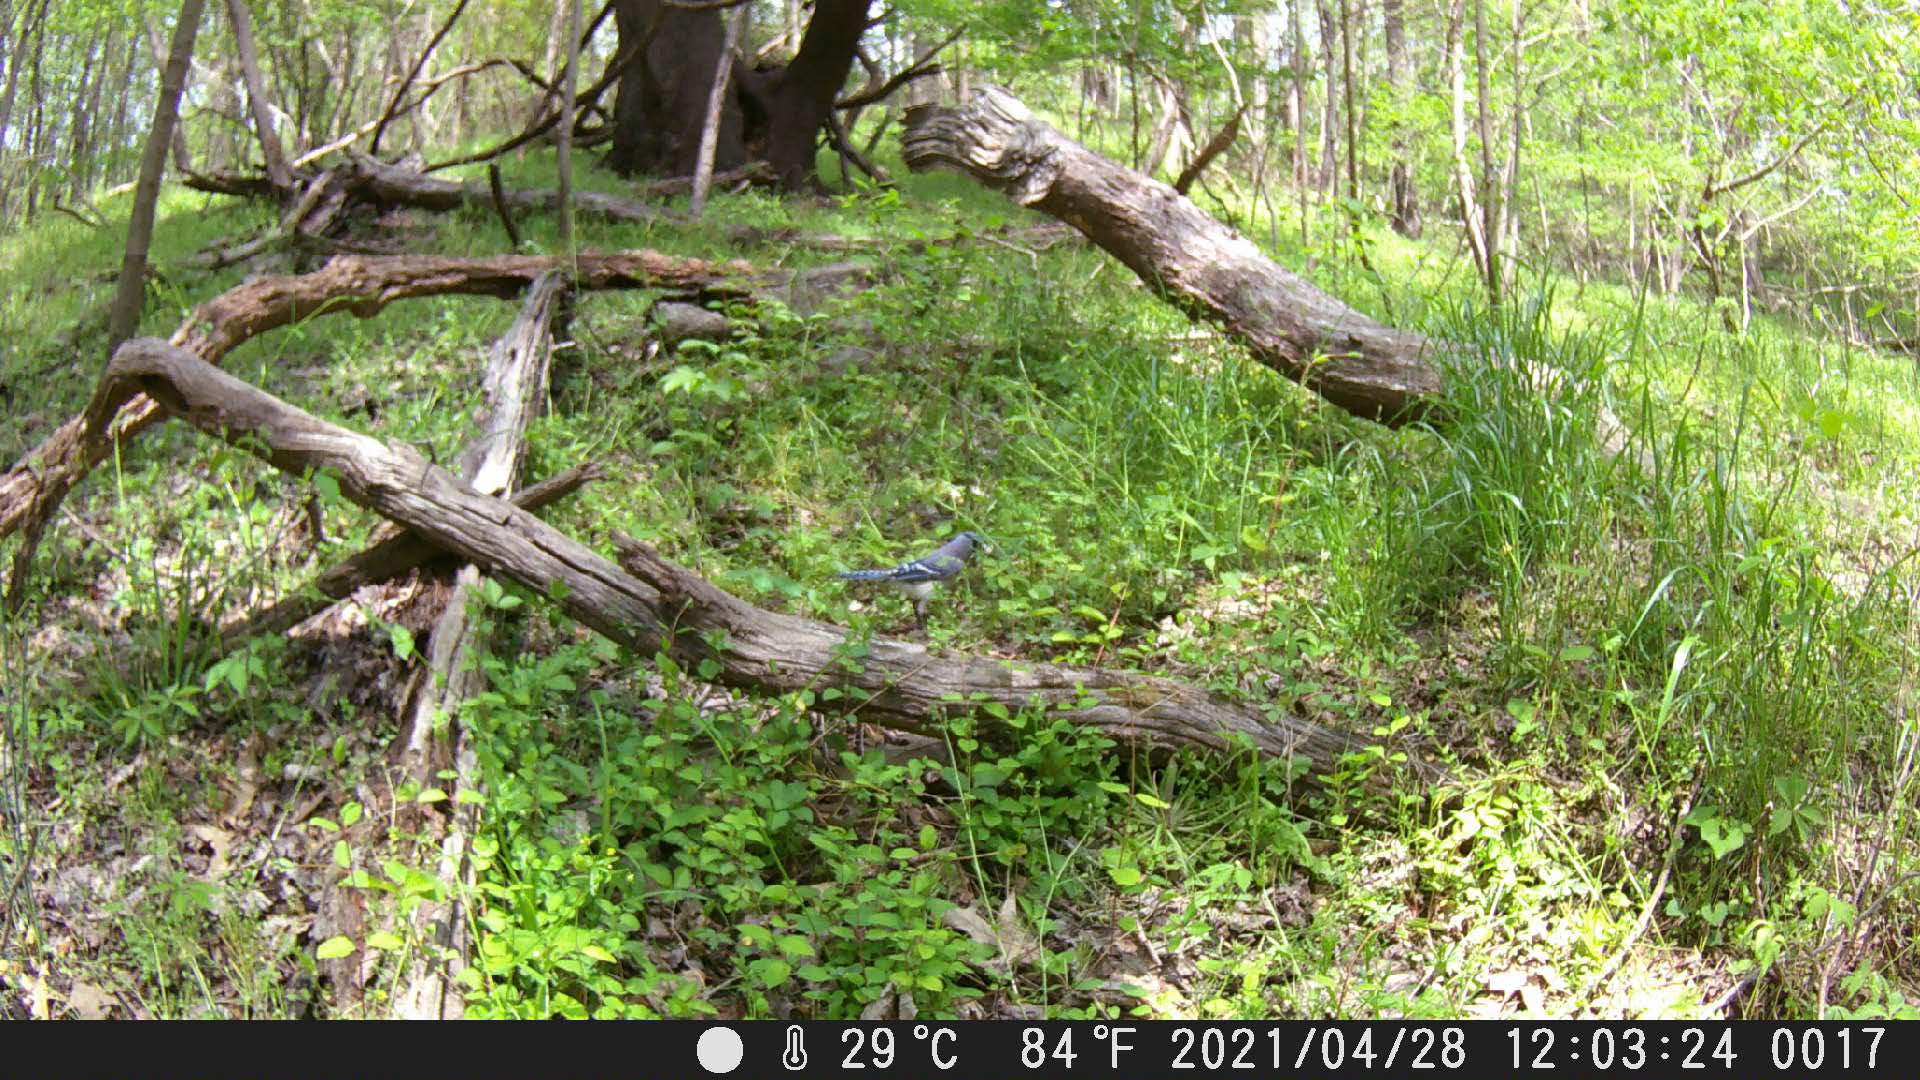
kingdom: Animalia
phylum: Chordata
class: Aves
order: Passeriformes
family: Corvidae
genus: Cyanocitta
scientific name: Cyanocitta cristata
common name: Blue jay
